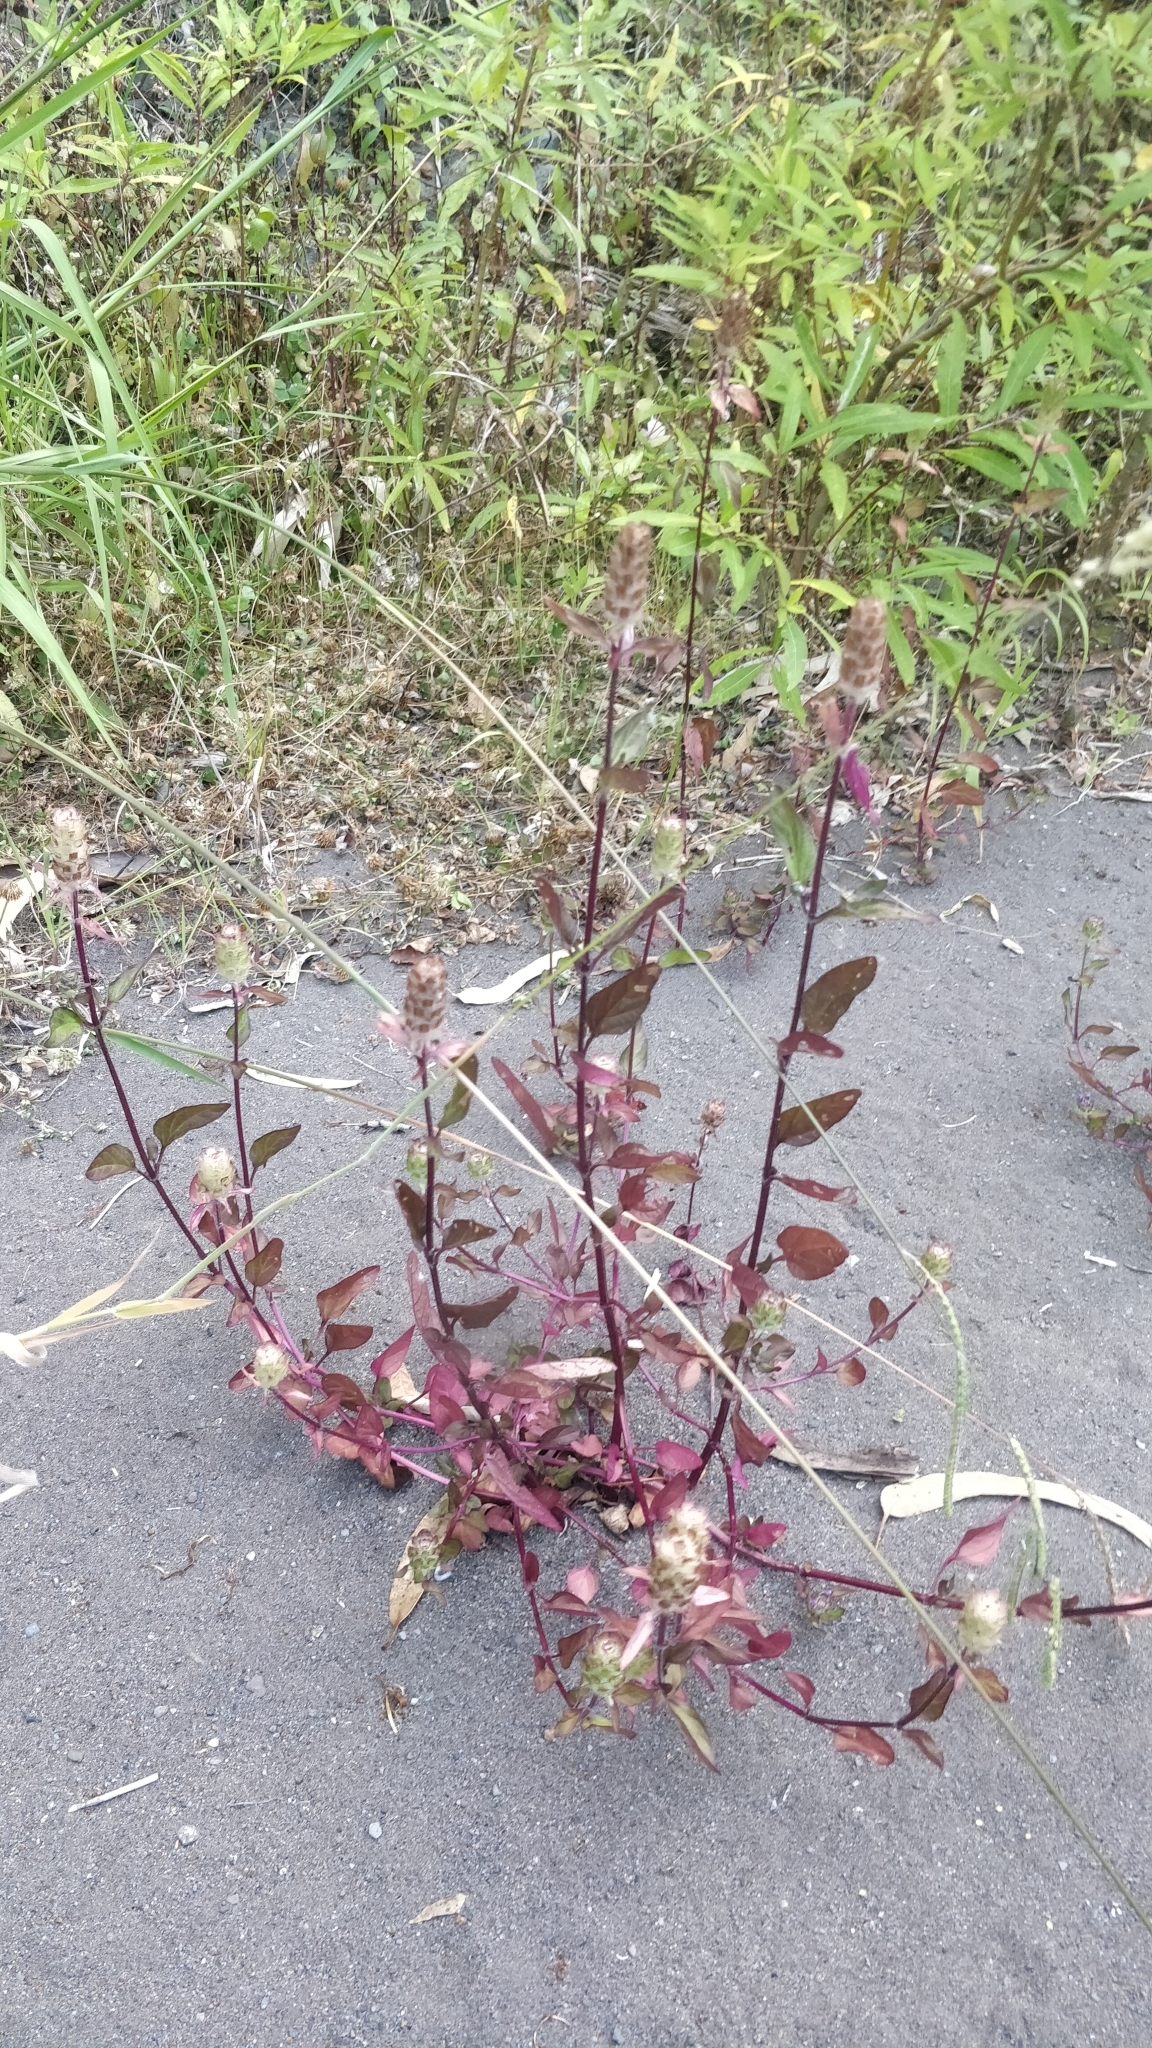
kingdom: Plantae
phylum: Tracheophyta
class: Magnoliopsida
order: Lamiales
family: Lamiaceae
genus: Prunella
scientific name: Prunella vulgaris
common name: Heal-all
